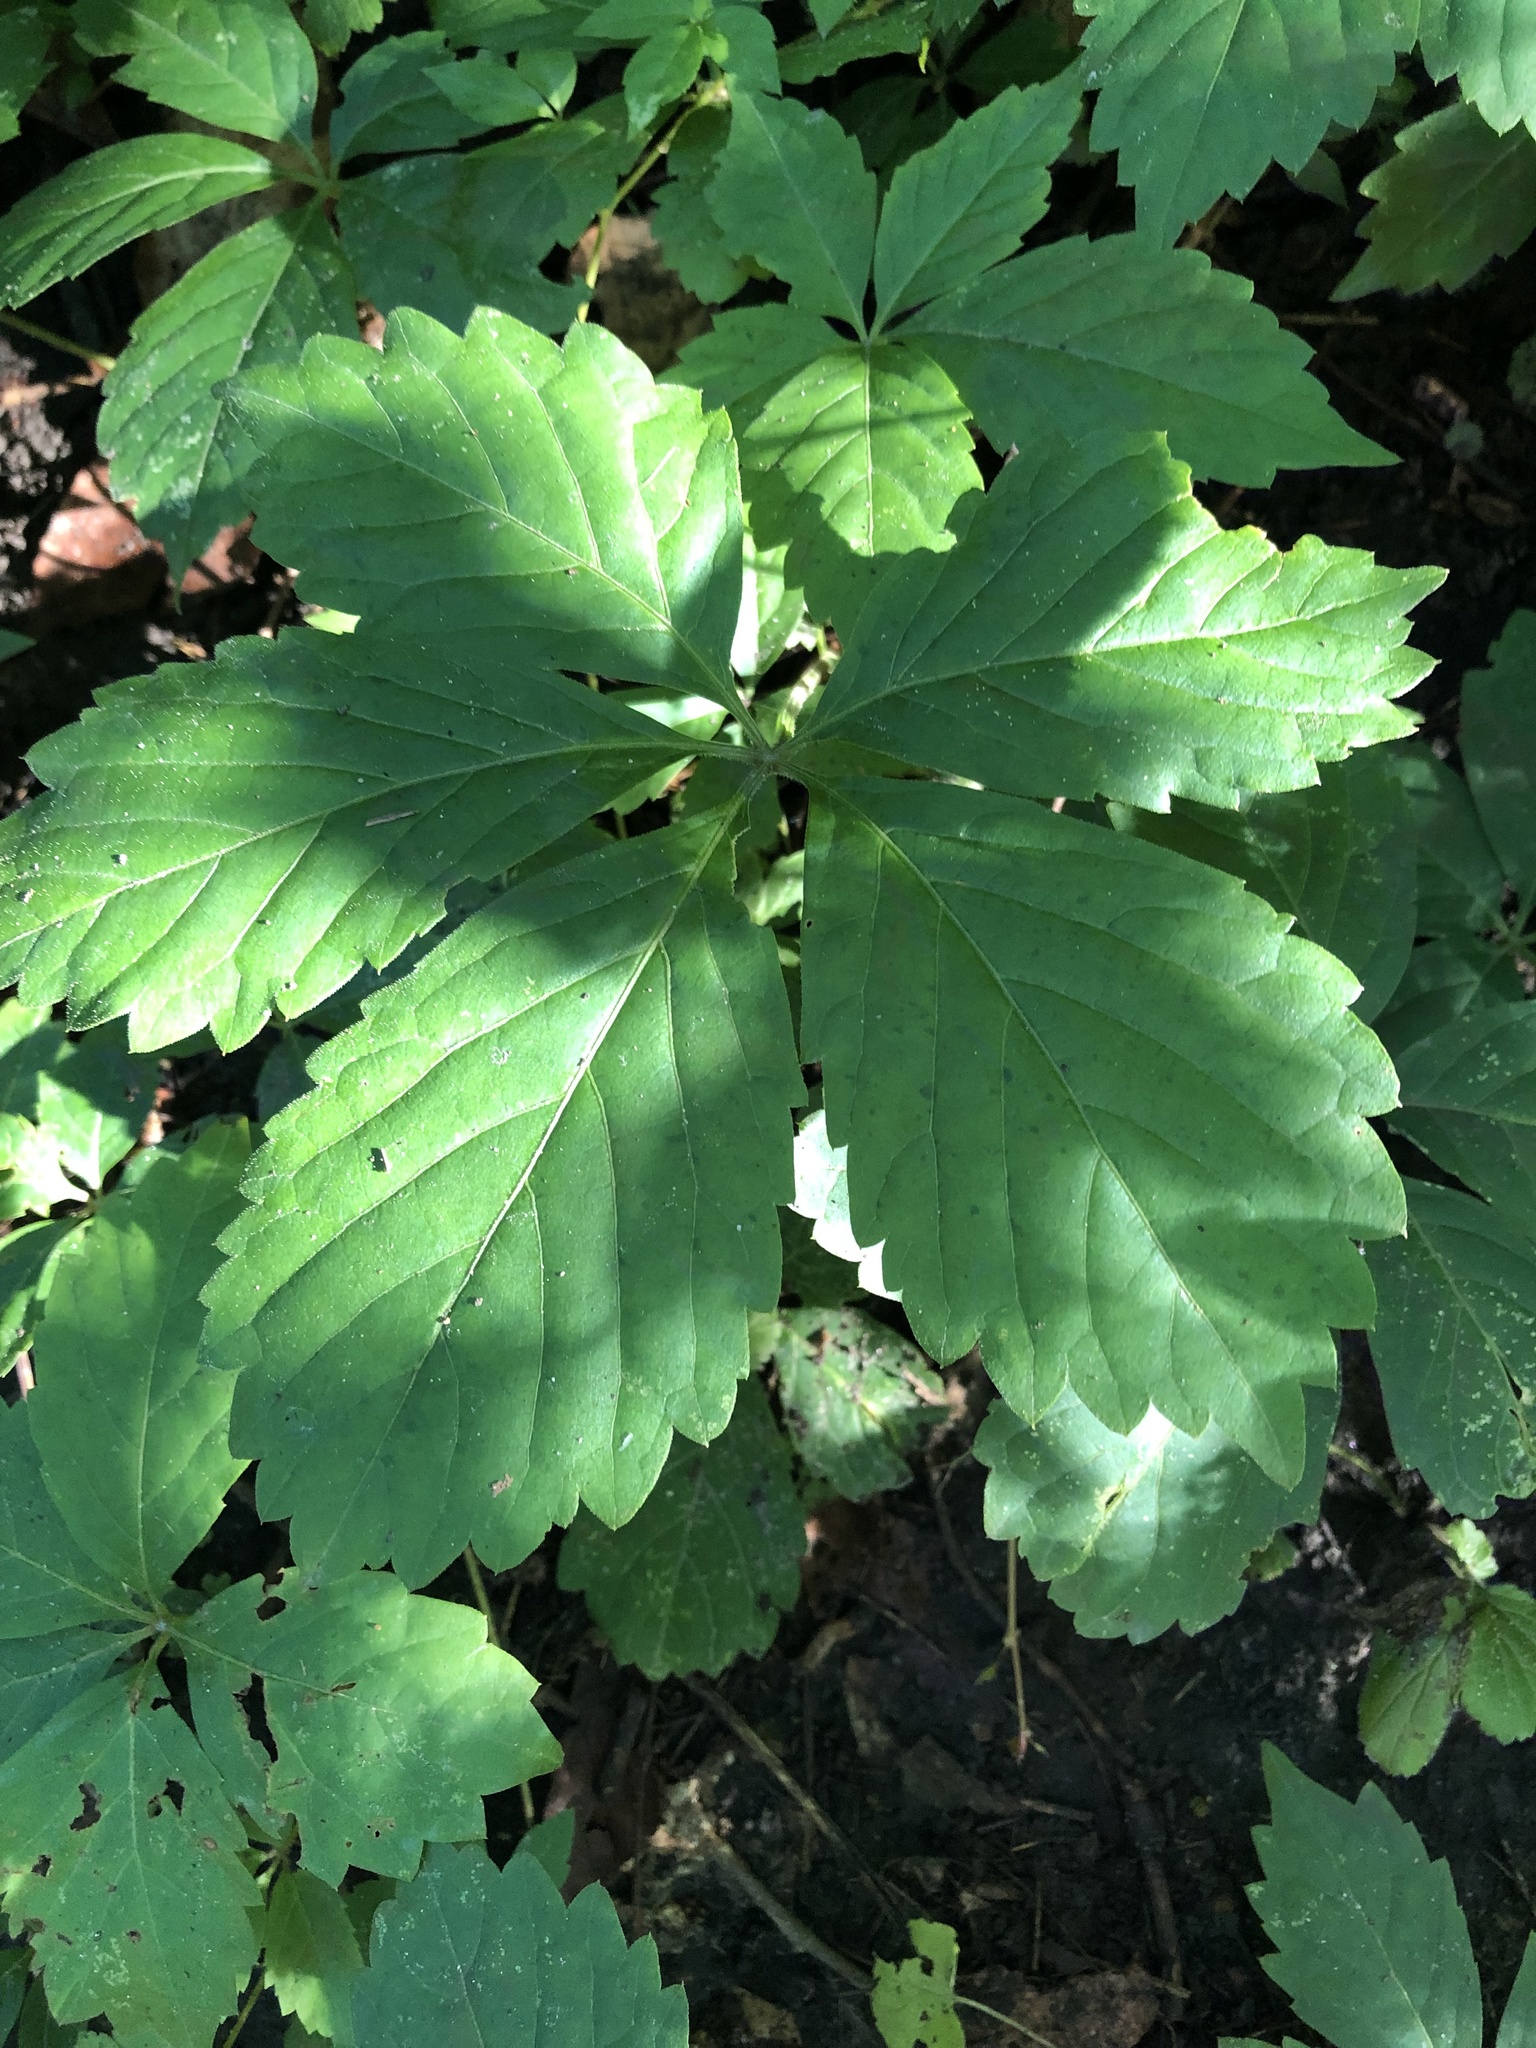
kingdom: Plantae
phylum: Tracheophyta
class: Magnoliopsida
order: Vitales
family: Vitaceae
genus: Parthenocissus
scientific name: Parthenocissus inserta
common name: False virginia-creeper
